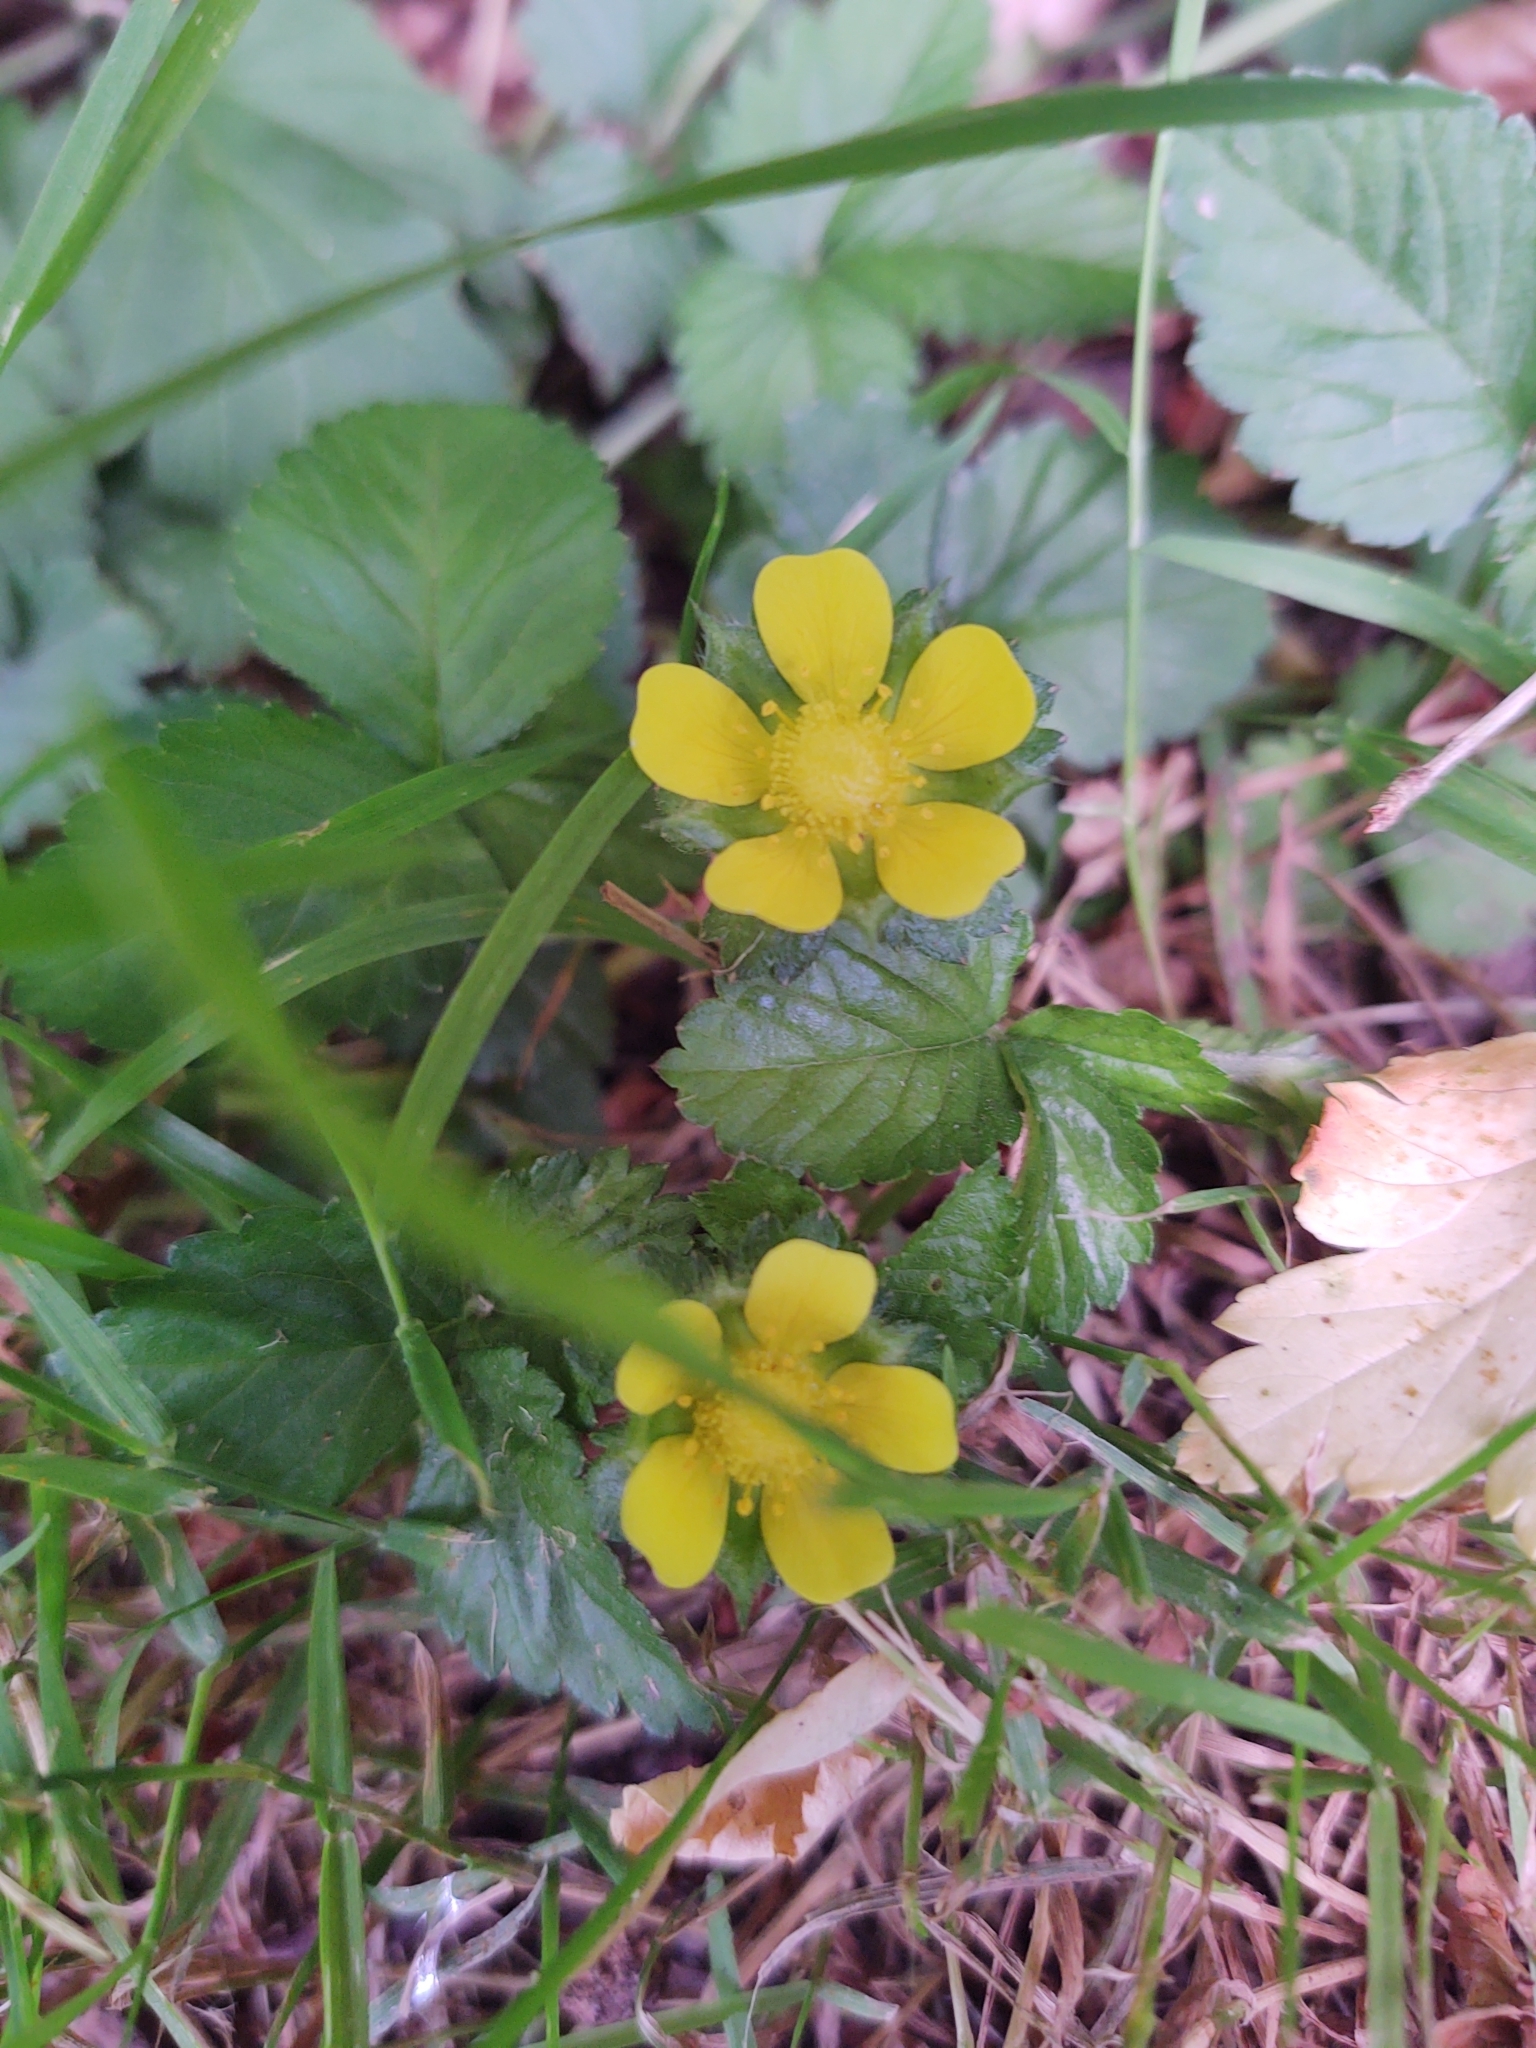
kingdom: Plantae
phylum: Tracheophyta
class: Magnoliopsida
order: Rosales
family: Rosaceae
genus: Potentilla
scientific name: Potentilla indica
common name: Yellow-flowered strawberry
